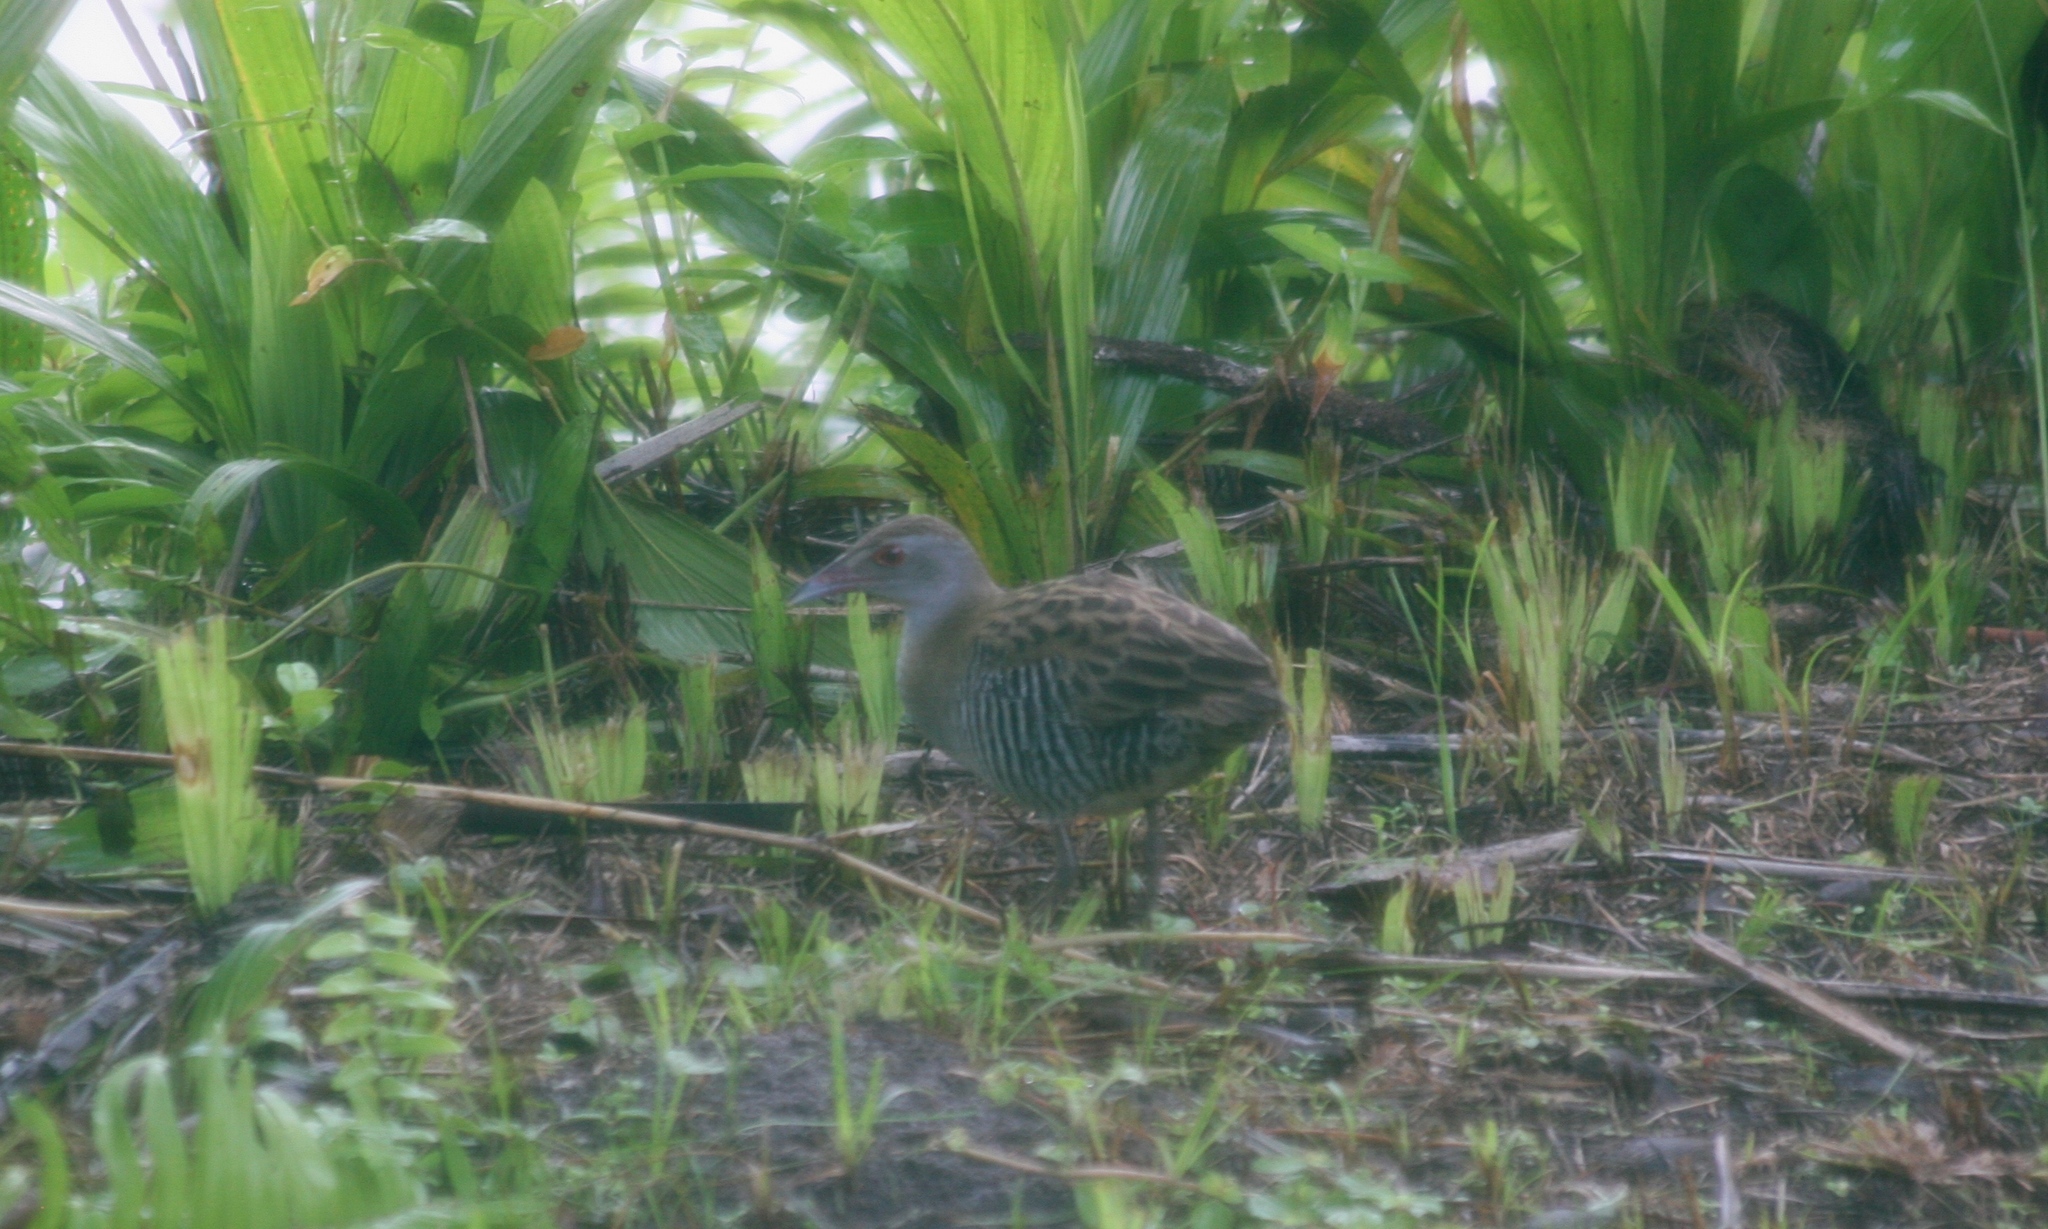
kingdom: Animalia
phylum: Chordata
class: Aves
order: Gruiformes
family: Rallidae
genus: Crex
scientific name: Crex egregia
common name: African crake
